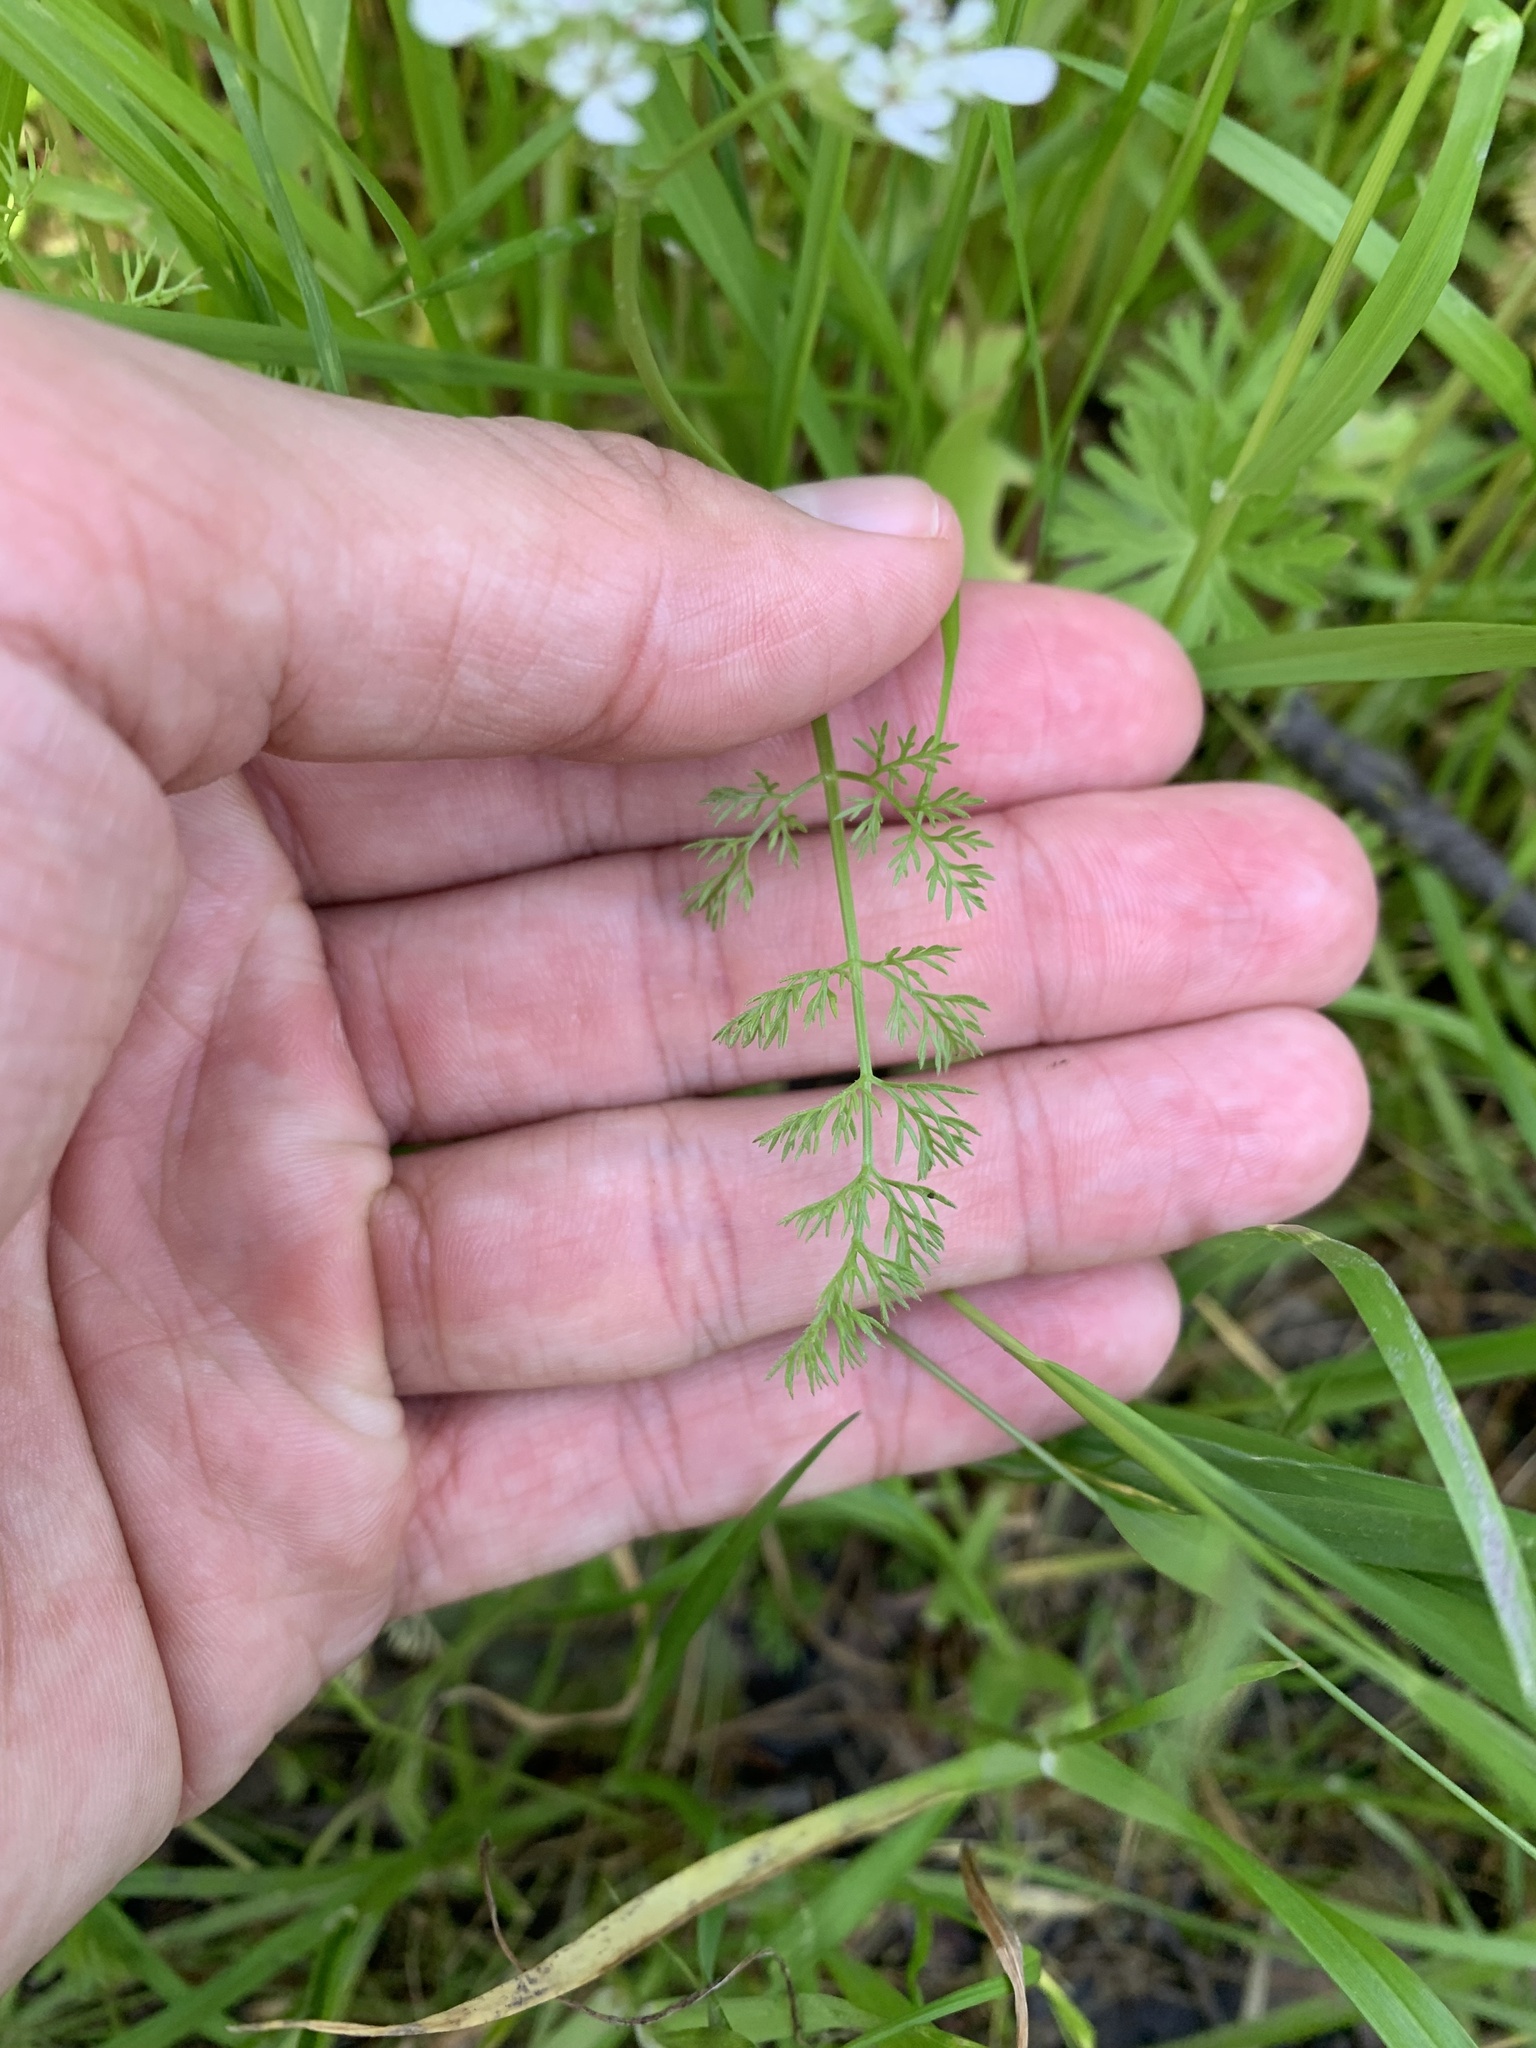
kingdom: Plantae
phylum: Tracheophyta
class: Magnoliopsida
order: Apiales
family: Apiaceae
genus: Scandix
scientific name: Scandix pecten-veneris
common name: Shepherd's-needle
